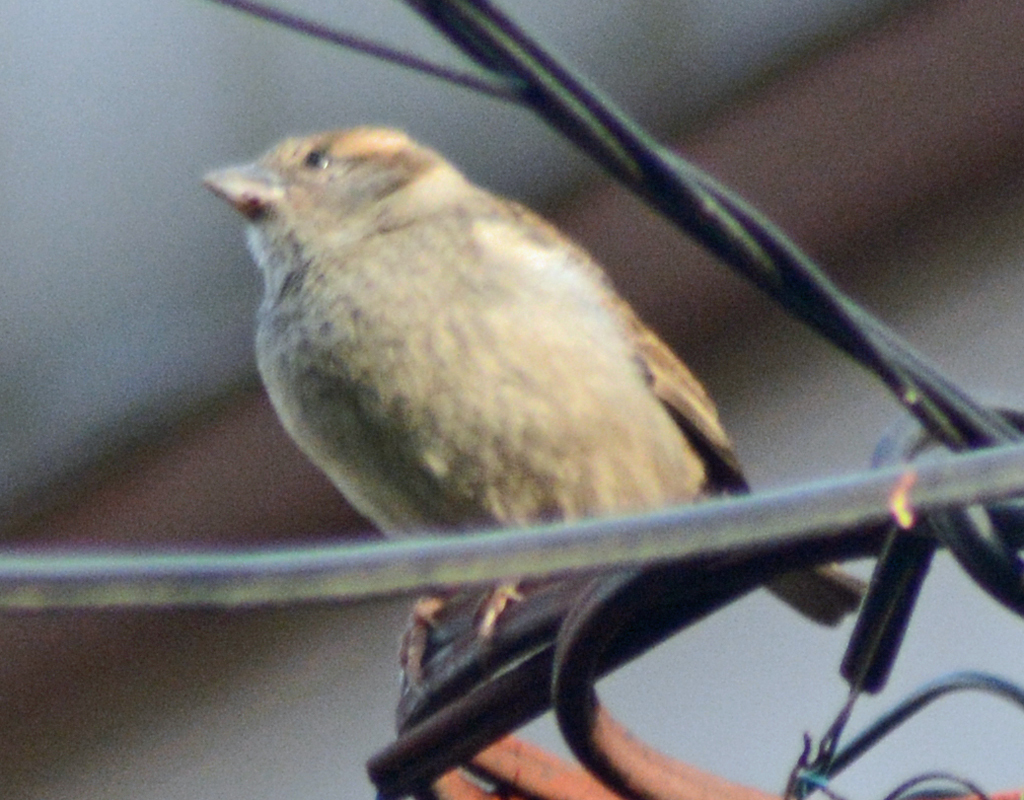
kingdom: Animalia
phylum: Chordata
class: Aves
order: Passeriformes
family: Passeridae
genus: Passer
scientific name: Passer domesticus
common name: House sparrow
